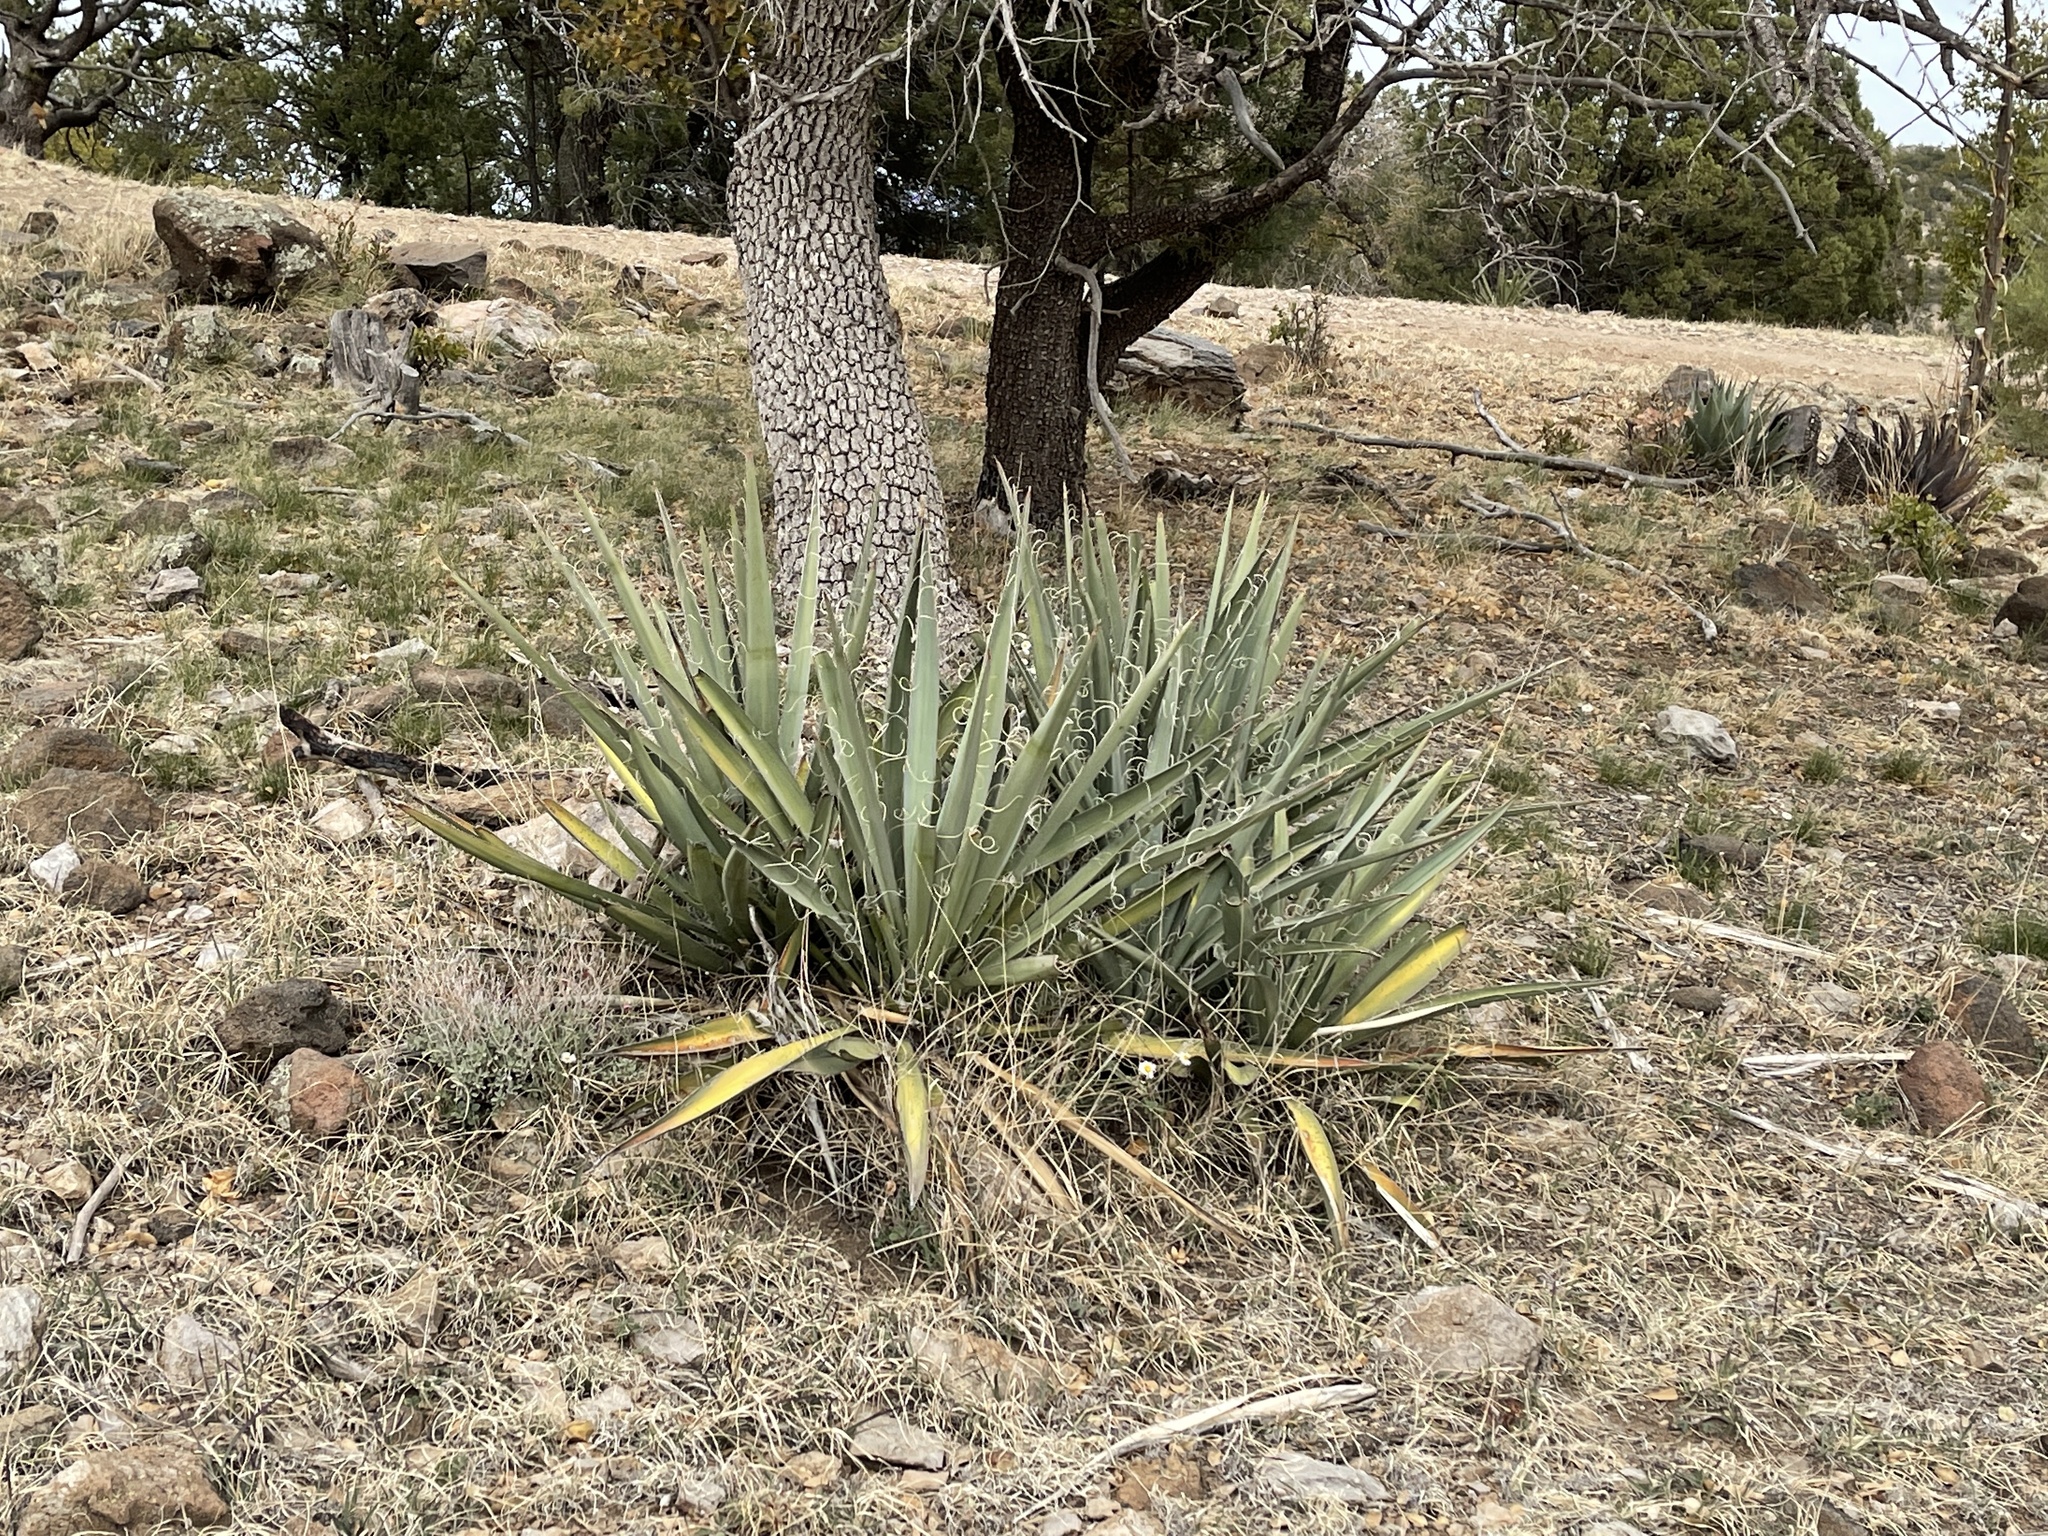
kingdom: Plantae
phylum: Tracheophyta
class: Liliopsida
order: Asparagales
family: Asparagaceae
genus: Yucca
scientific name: Yucca baccata
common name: Banana yucca
